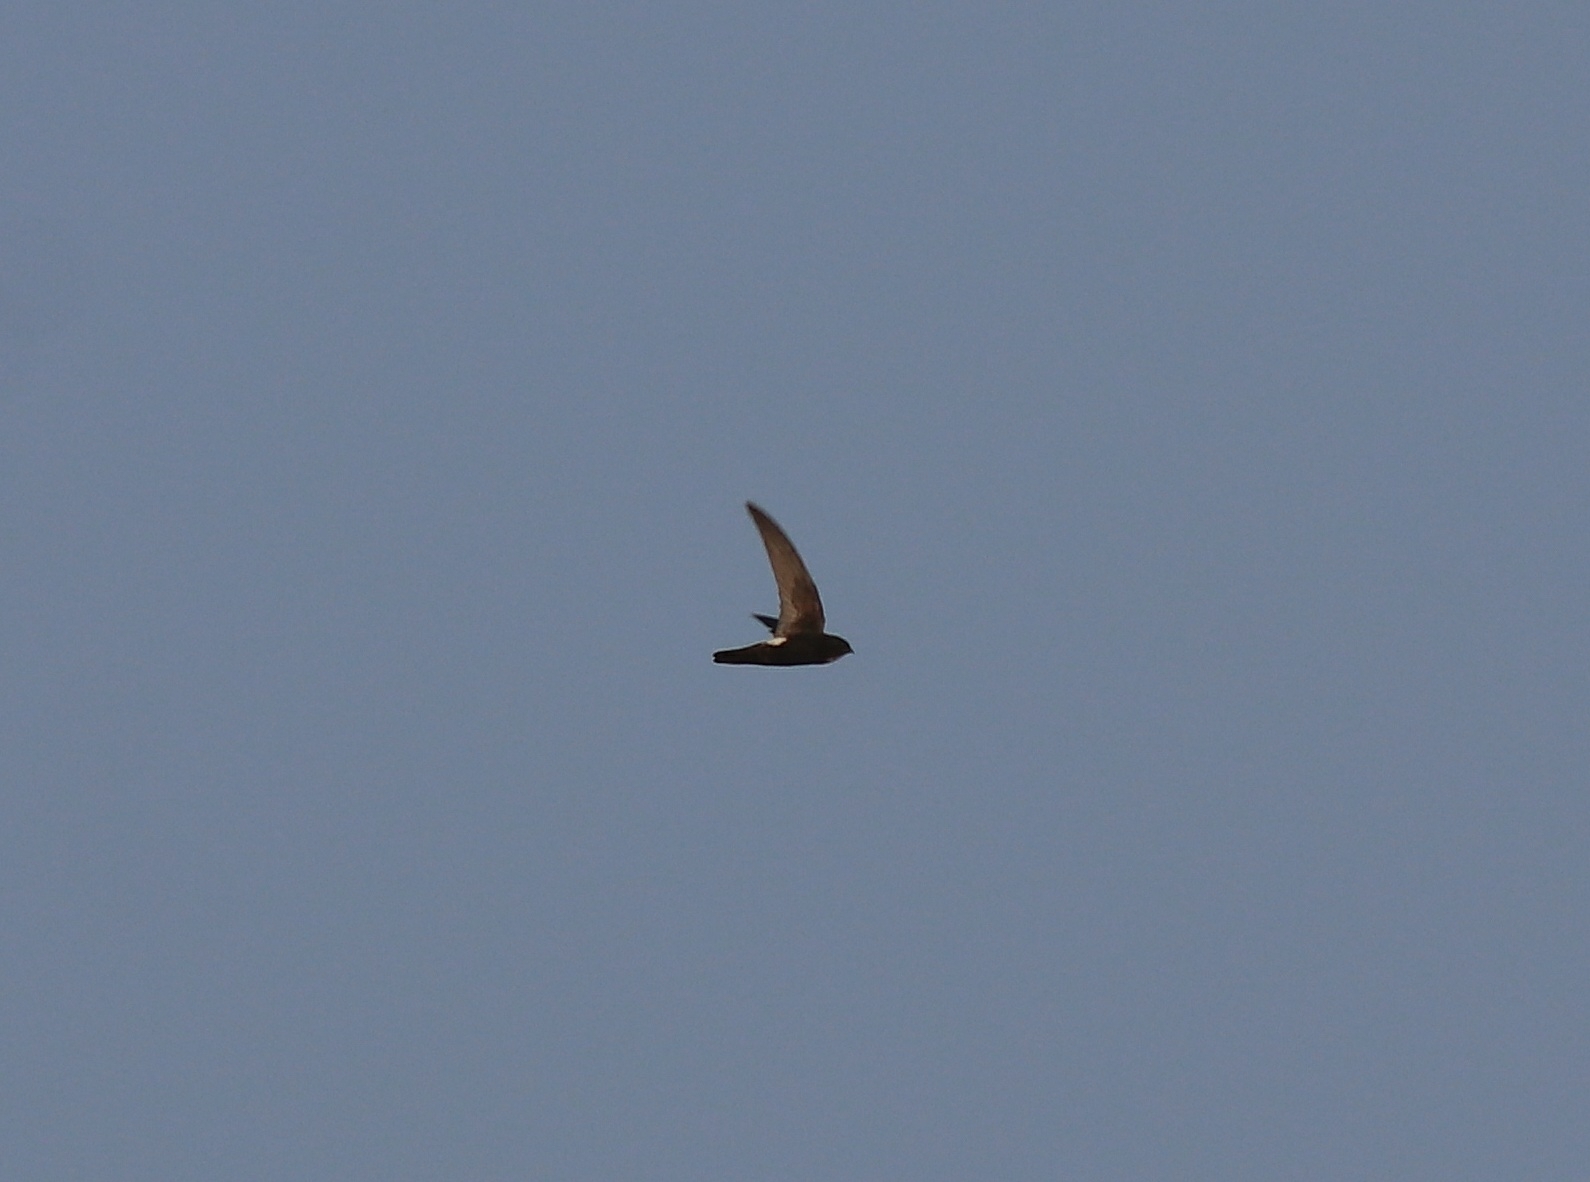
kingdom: Animalia
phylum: Chordata
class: Aves
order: Apodiformes
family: Apodidae
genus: Apus
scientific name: Apus affinis
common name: Little swift
